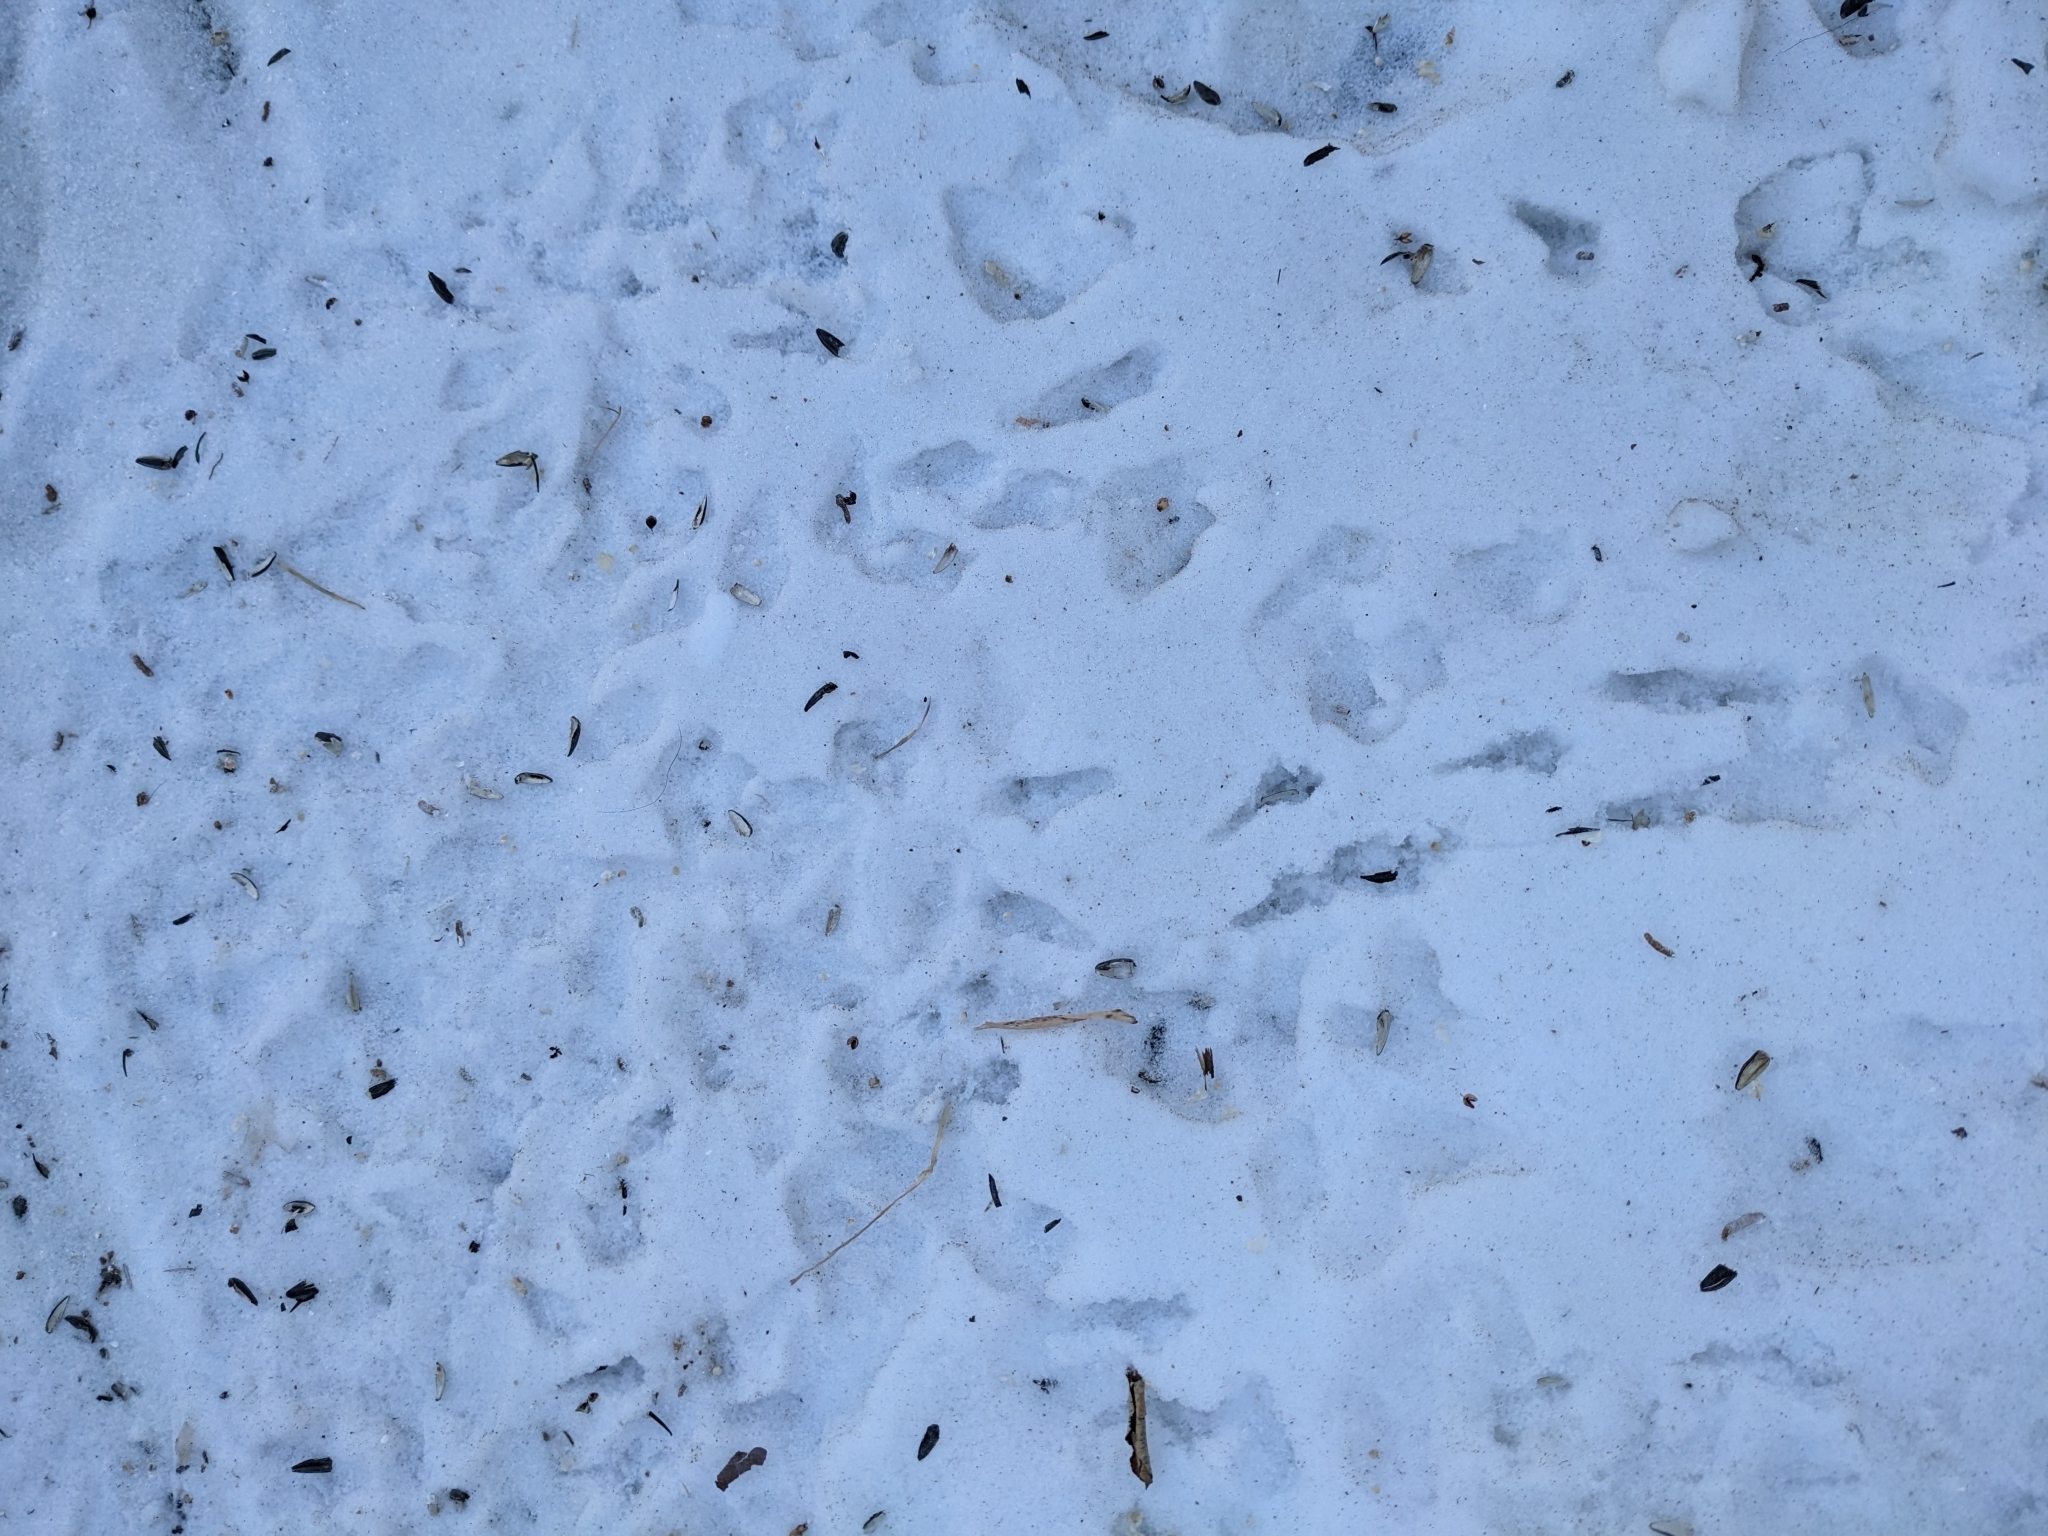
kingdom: Animalia
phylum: Chordata
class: Aves
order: Passeriformes
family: Passeridae
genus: Passer
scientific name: Passer domesticus
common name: House sparrow
